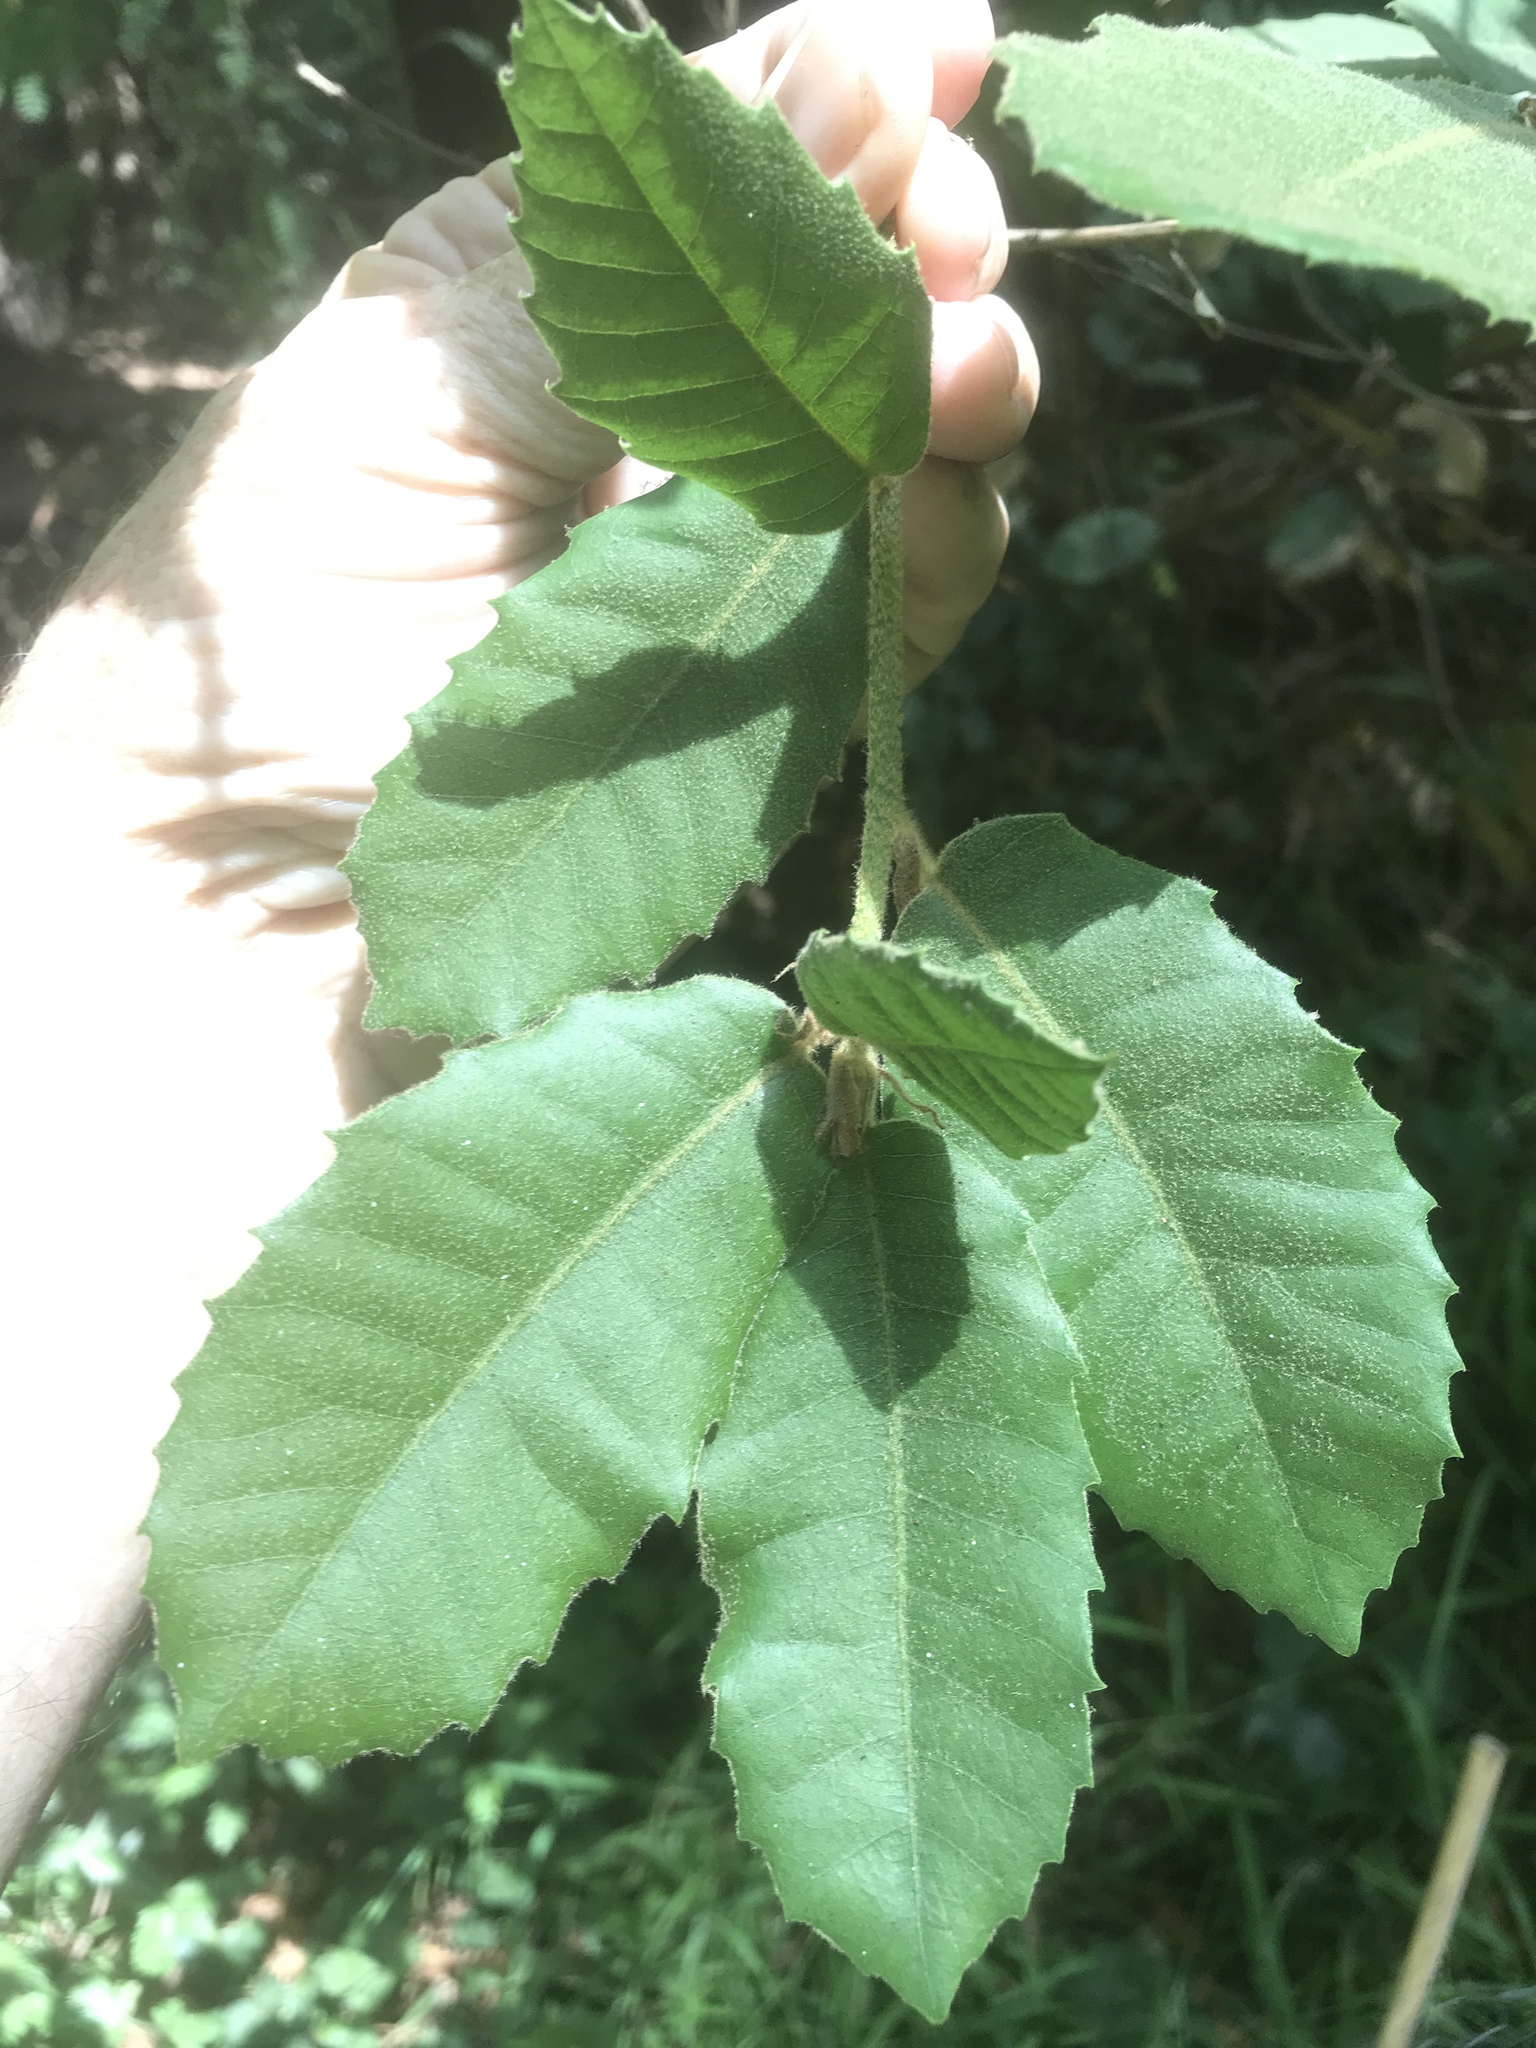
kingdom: Plantae
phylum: Tracheophyta
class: Magnoliopsida
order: Fagales
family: Fagaceae
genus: Notholithocarpus
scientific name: Notholithocarpus densiflorus
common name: Tan bark oak
